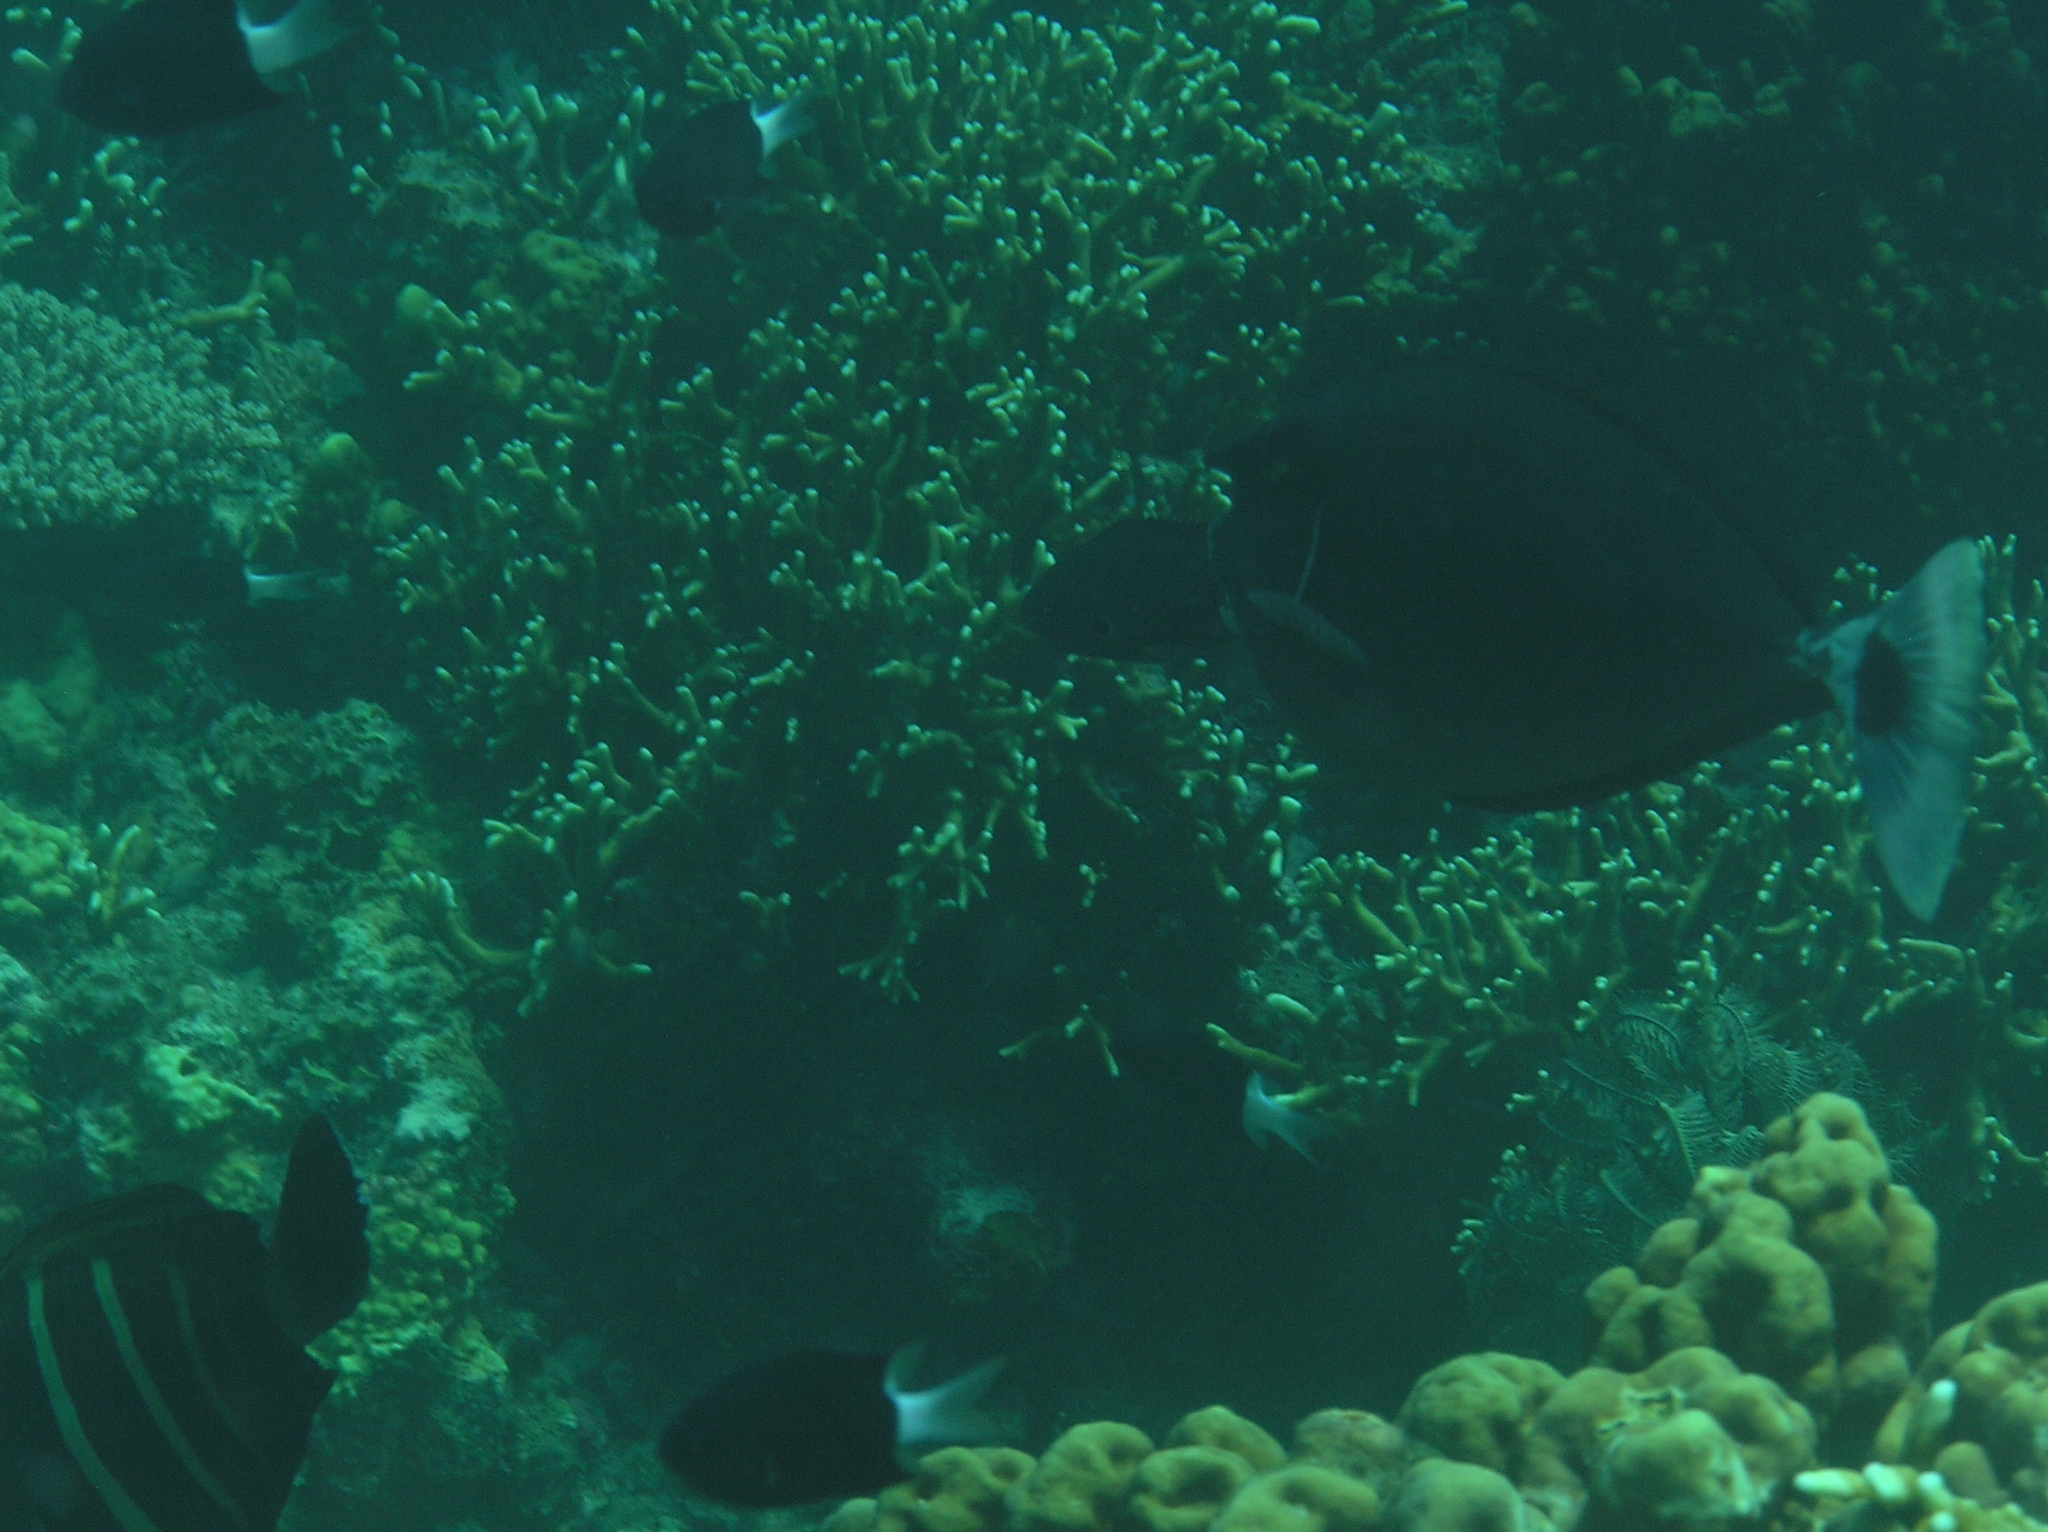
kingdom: Animalia
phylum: Chordata
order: Perciformes
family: Acanthuridae
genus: Naso
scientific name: Naso brevirostris
